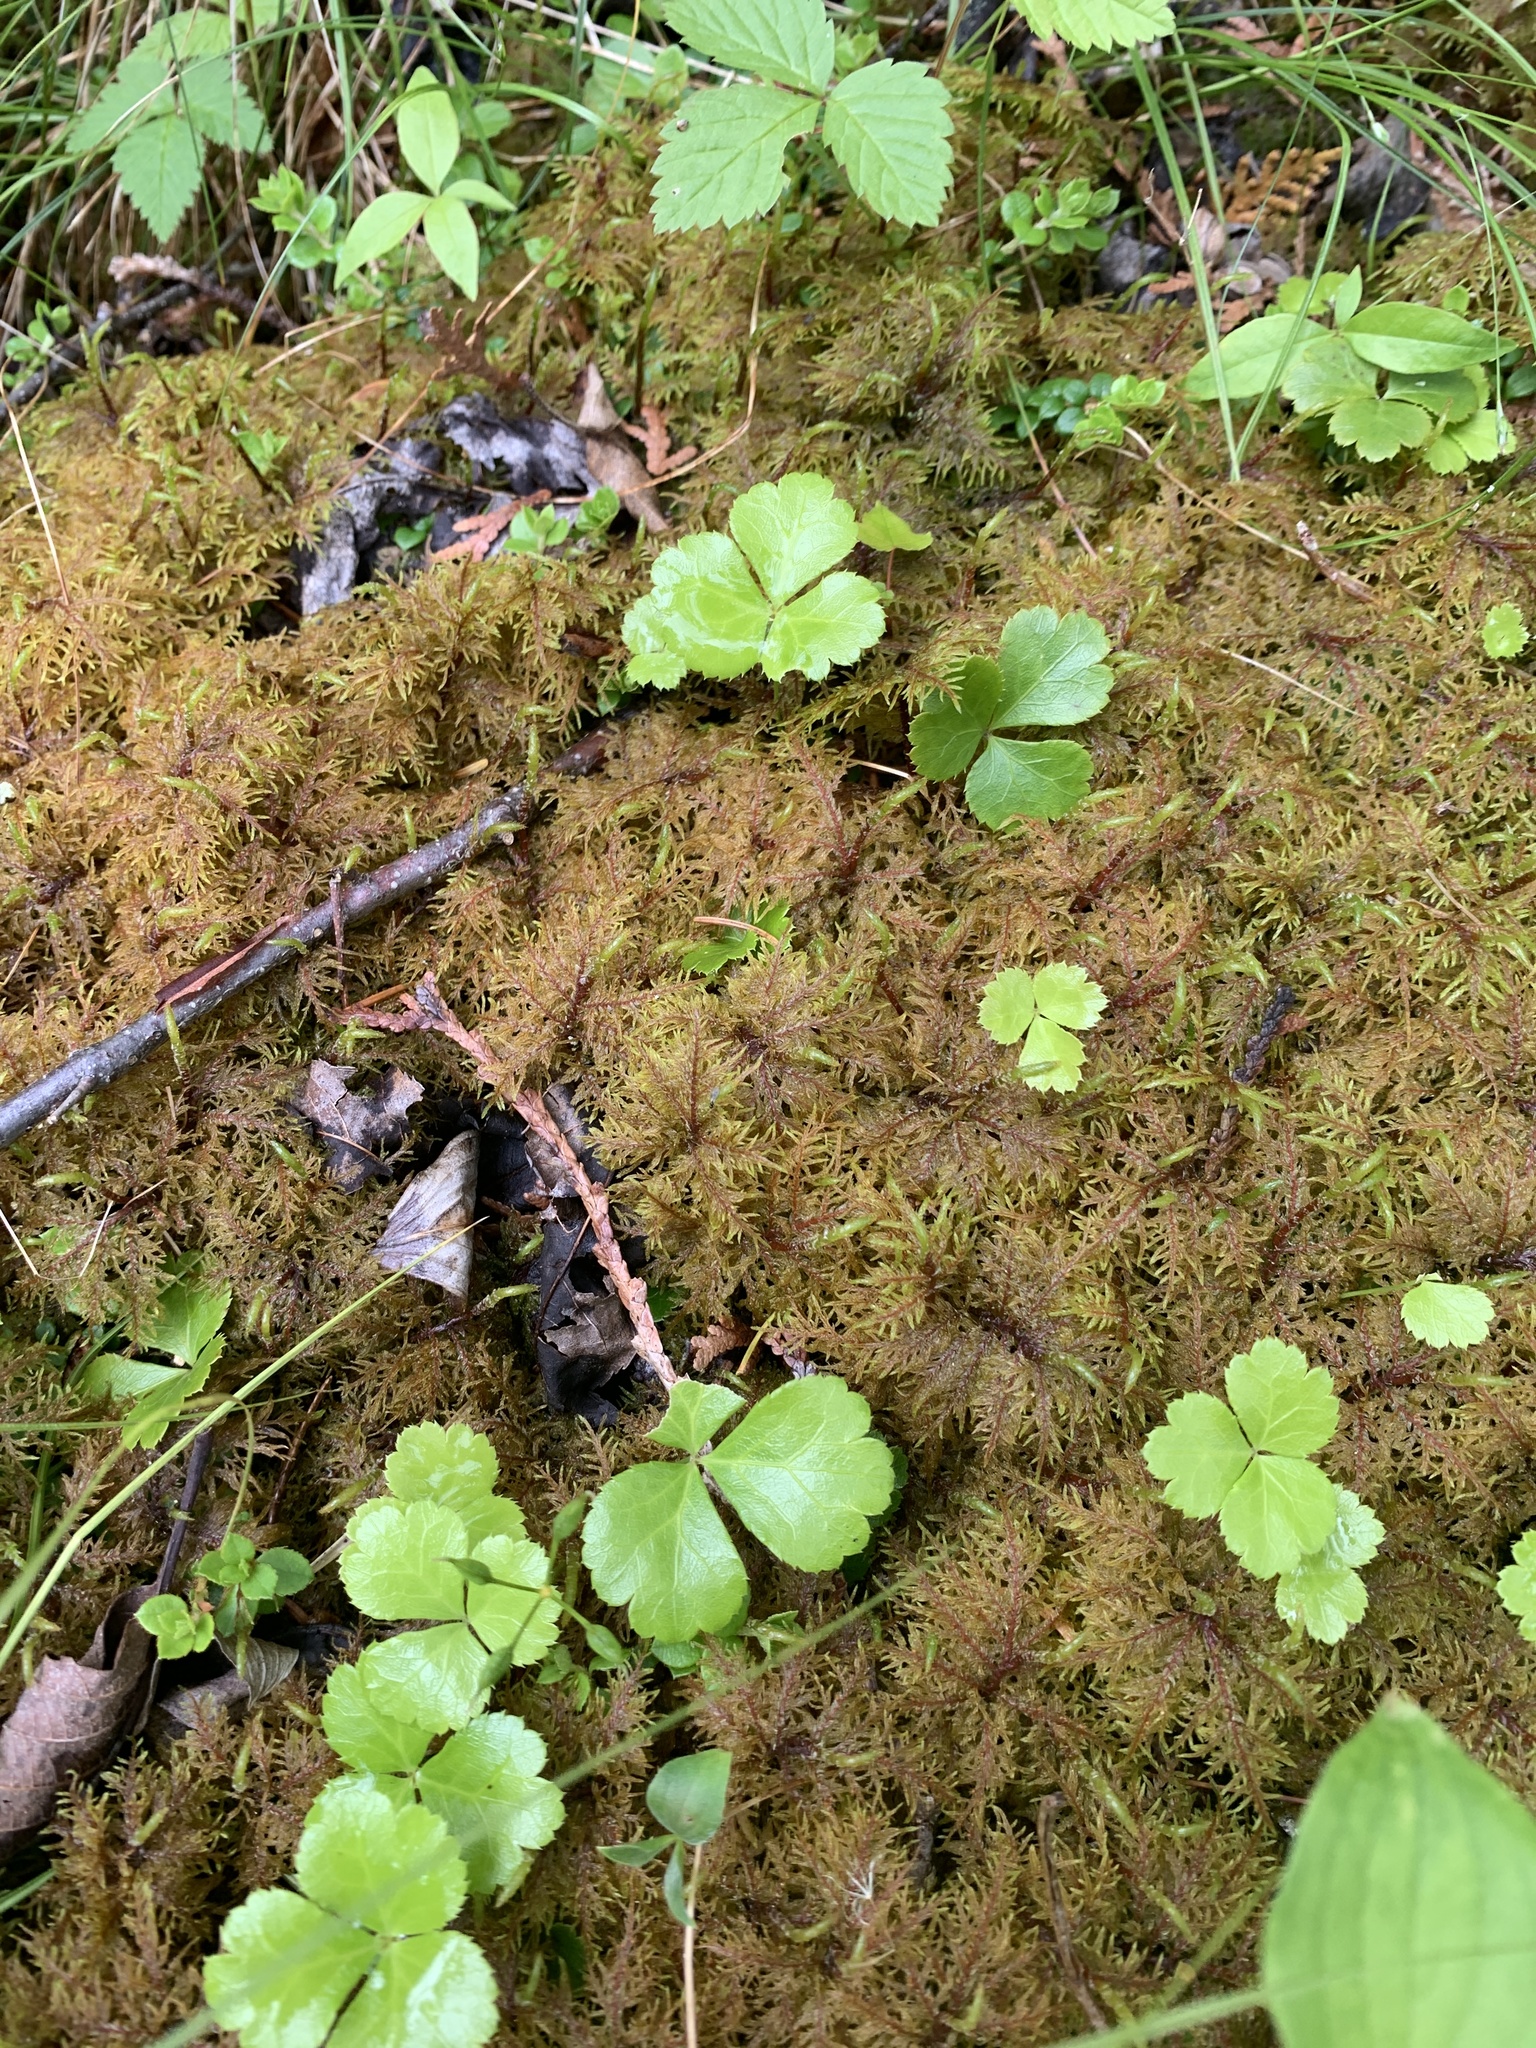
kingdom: Plantae
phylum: Bryophyta
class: Bryopsida
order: Hypnales
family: Hylocomiaceae
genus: Hylocomium
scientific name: Hylocomium splendens
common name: Stairstep moss
